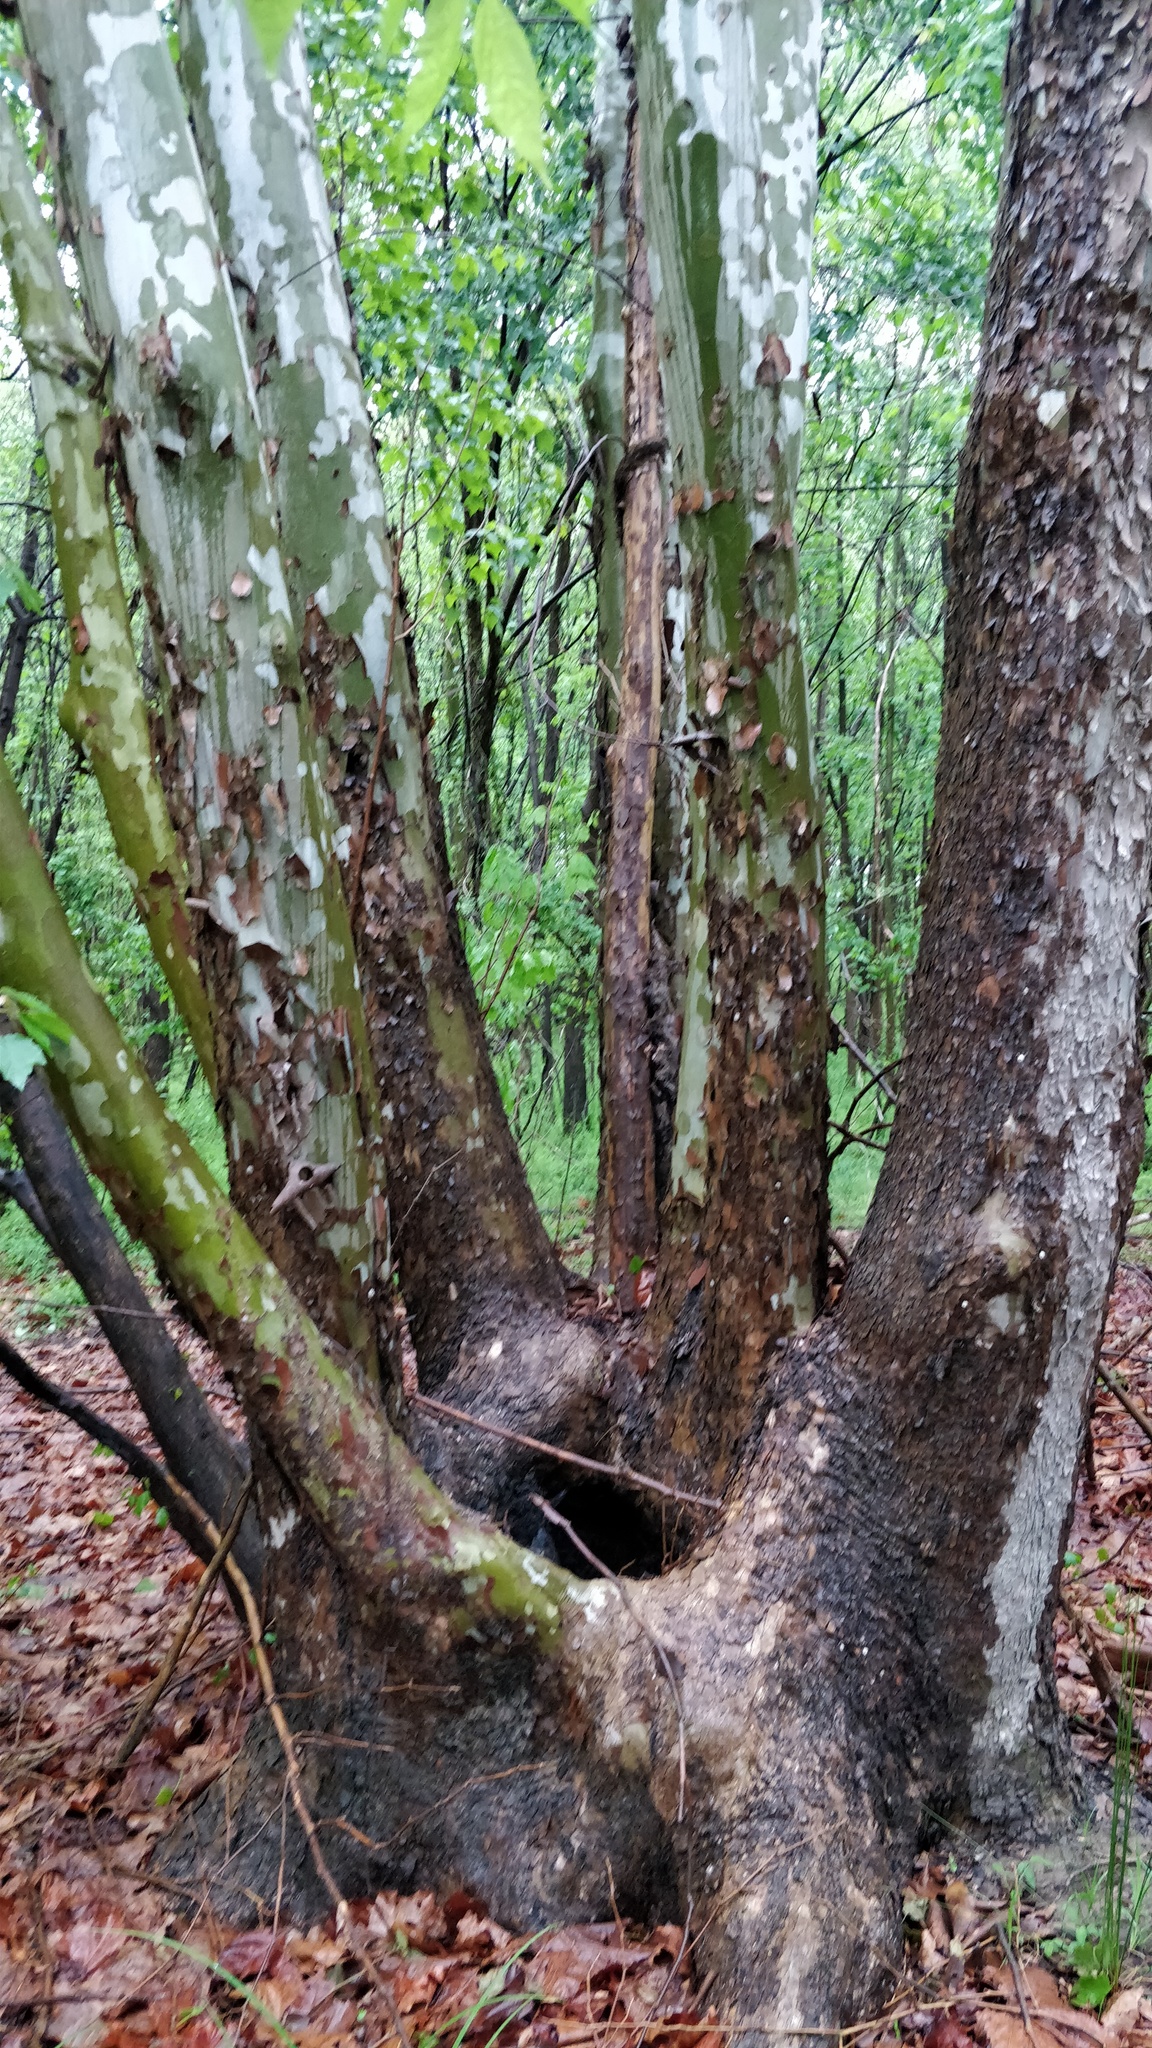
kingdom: Plantae
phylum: Tracheophyta
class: Magnoliopsida
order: Proteales
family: Platanaceae
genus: Platanus
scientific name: Platanus occidentalis
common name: American sycamore
